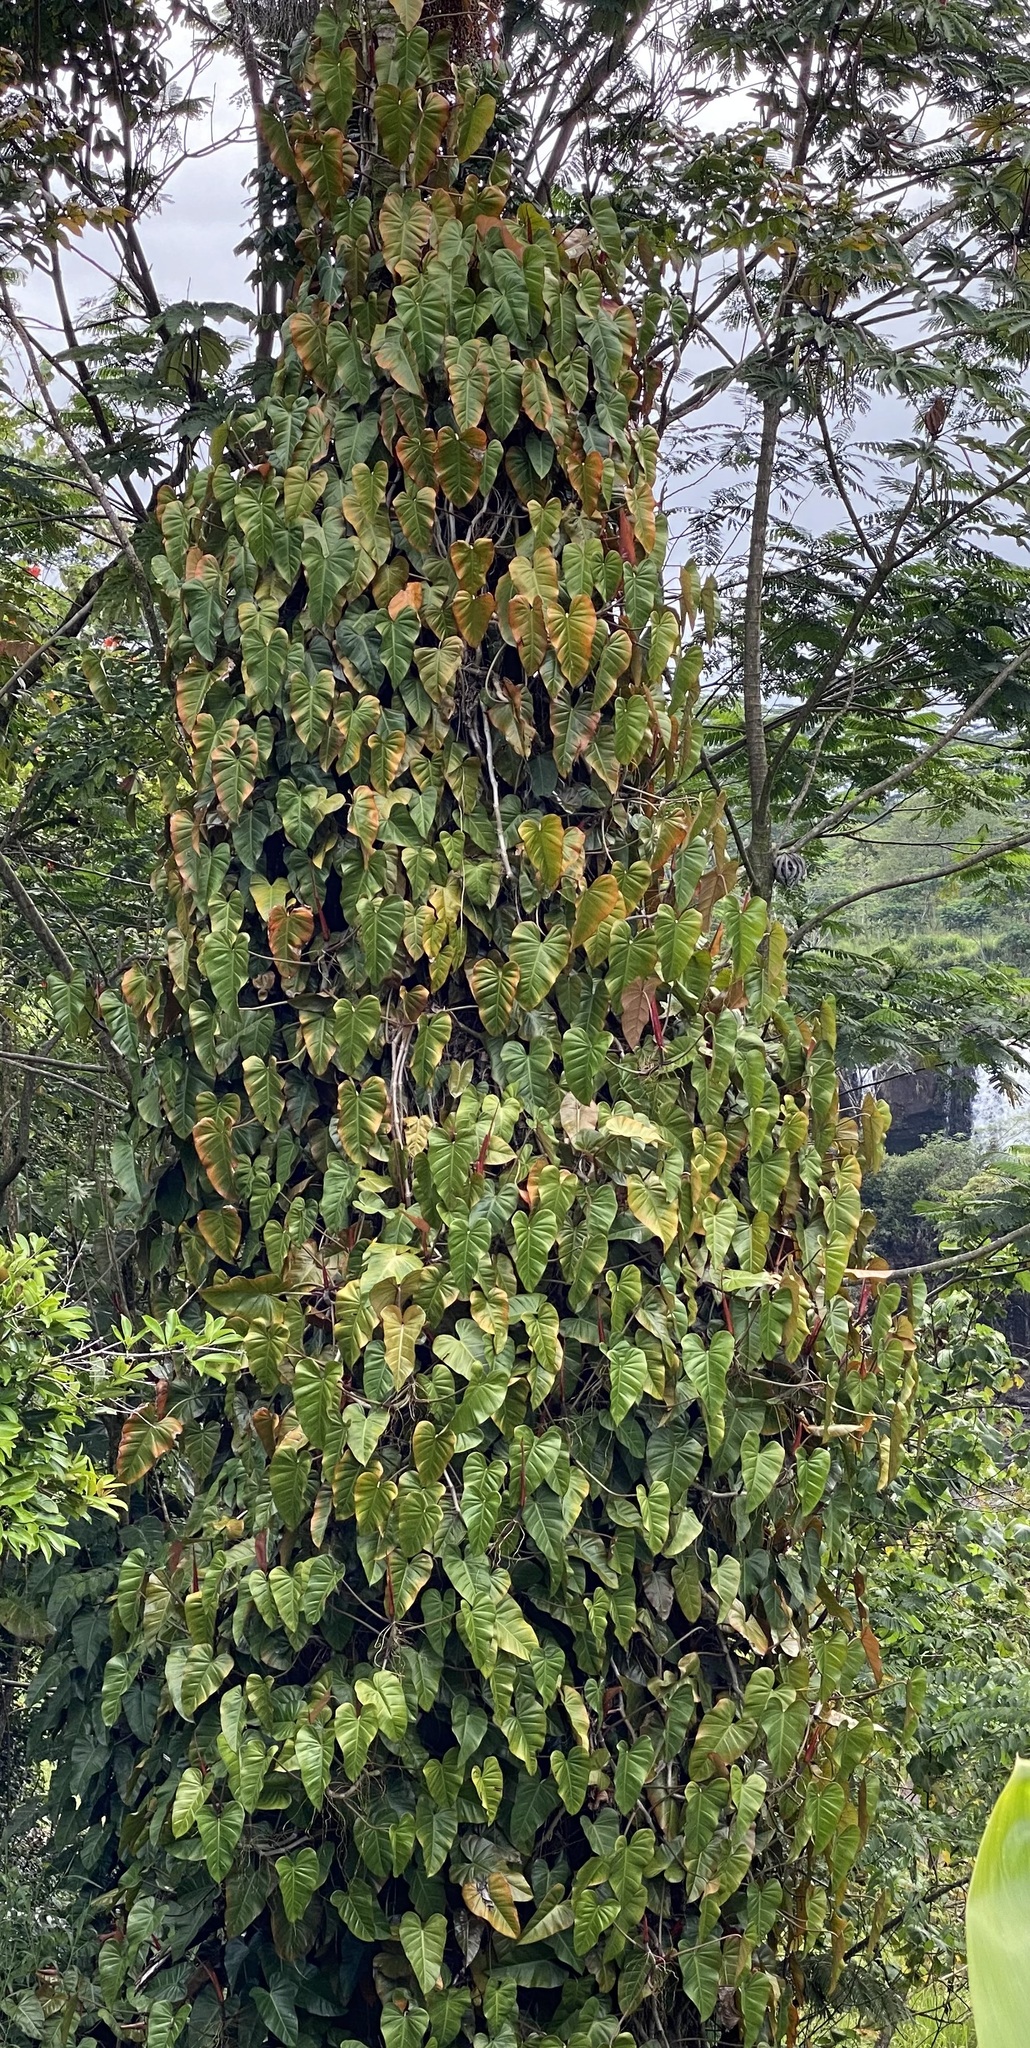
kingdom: Plantae
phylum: Tracheophyta
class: Liliopsida
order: Alismatales
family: Araceae
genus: Philodendron
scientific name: Philodendron erubescens
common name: Philodendron
